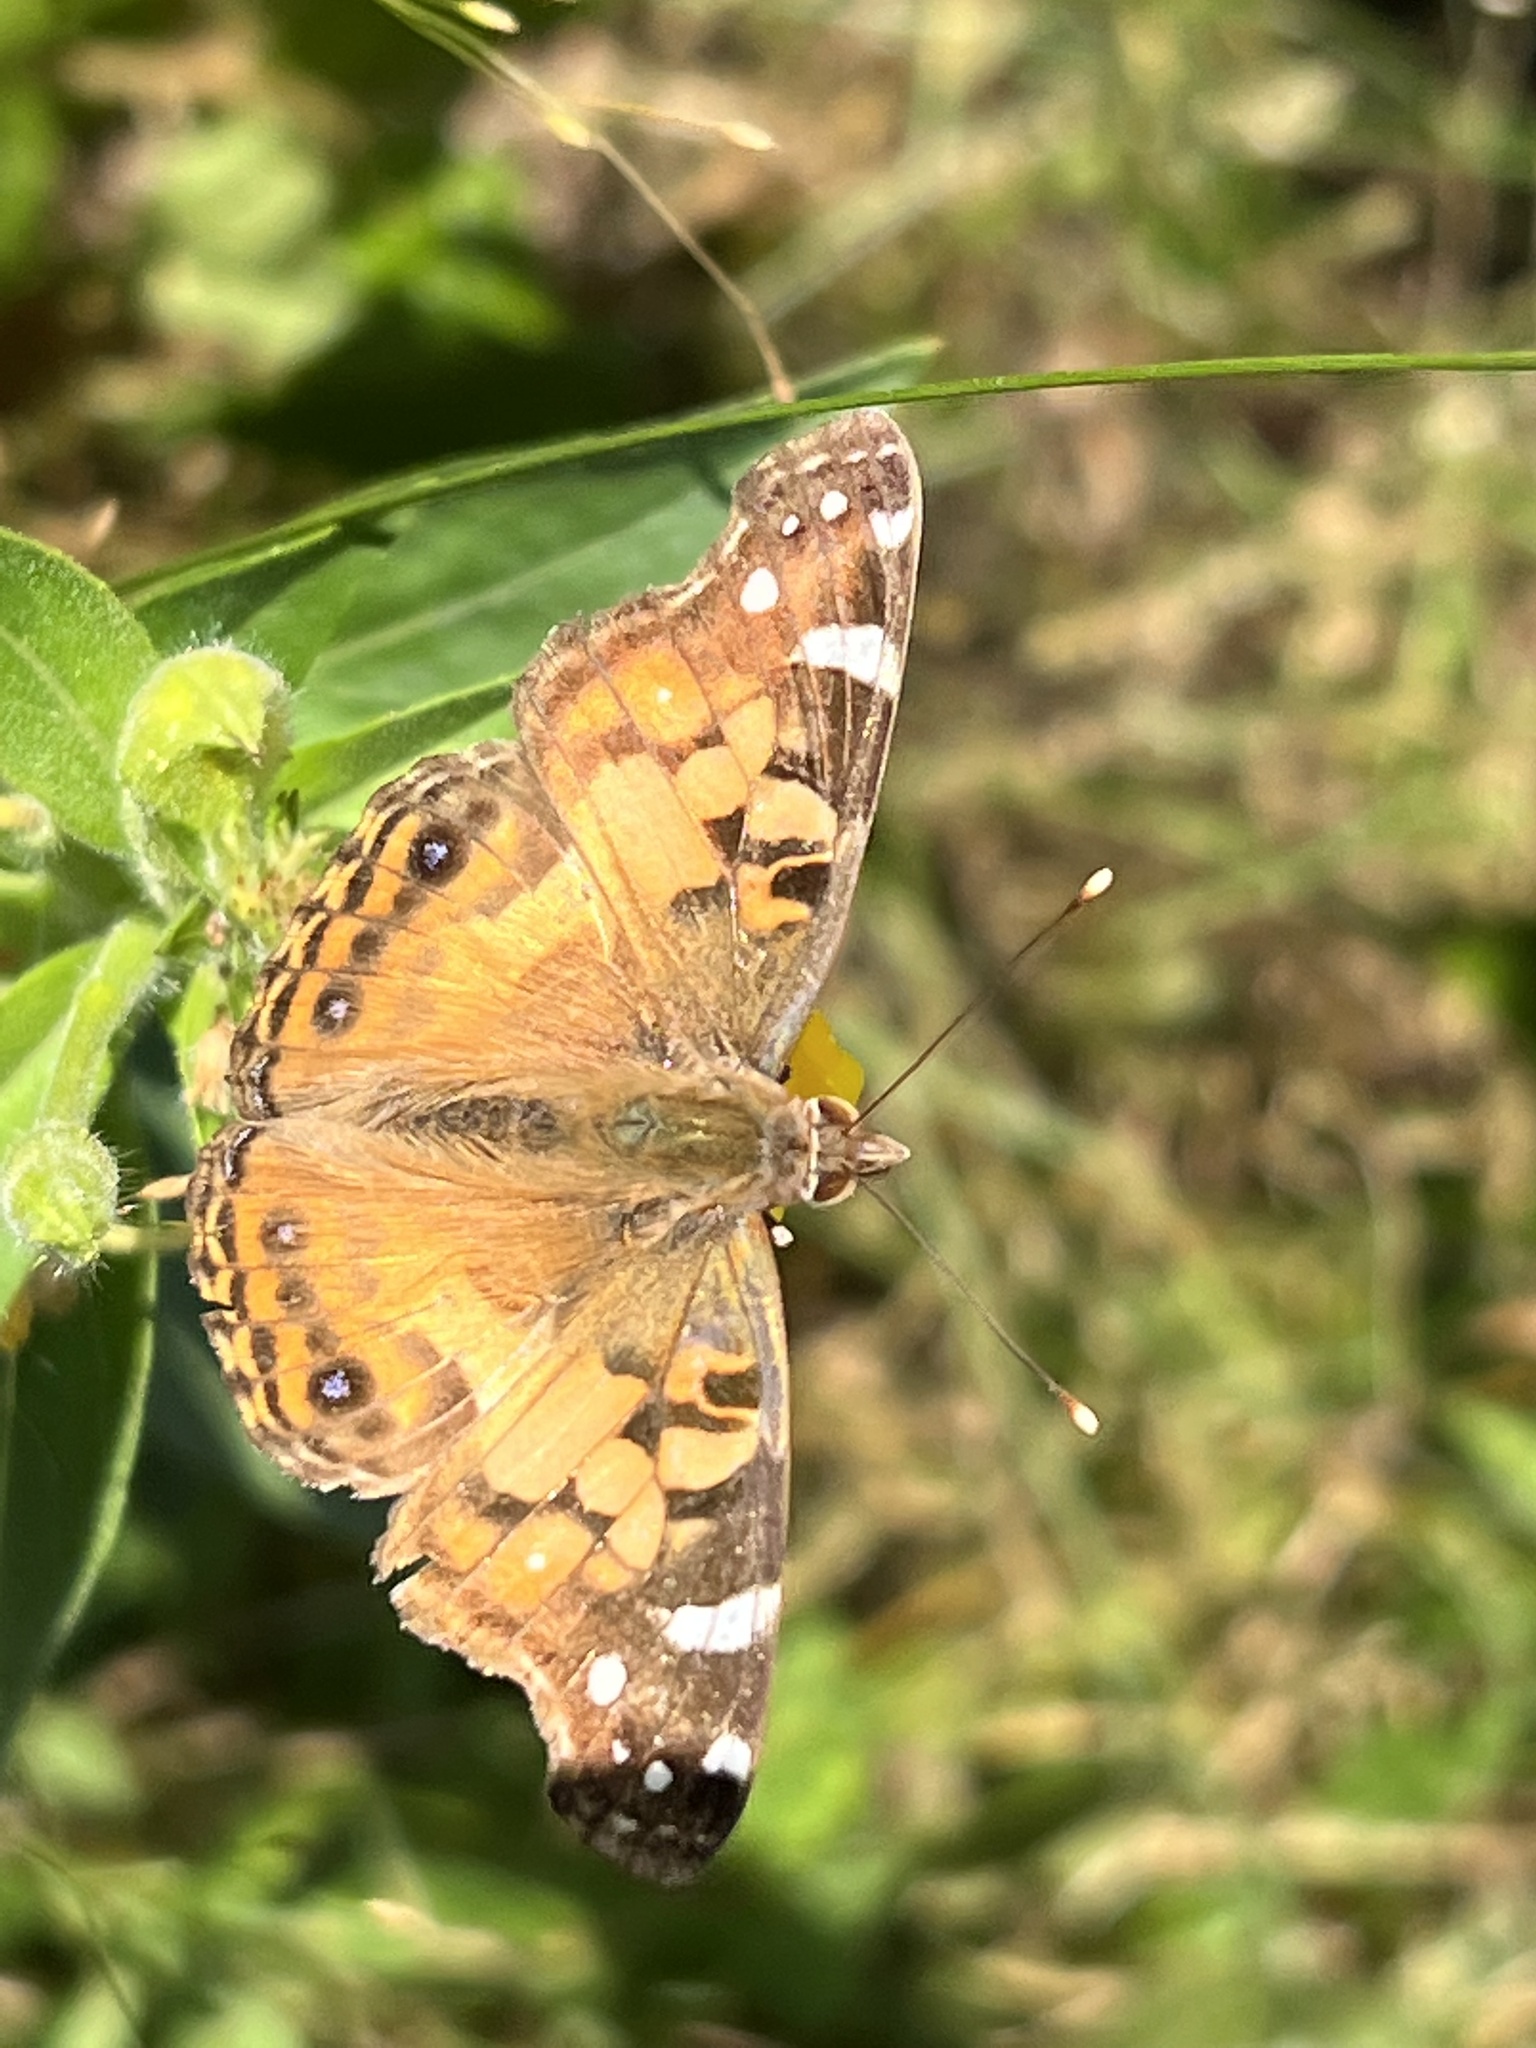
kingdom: Animalia
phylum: Arthropoda
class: Insecta
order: Lepidoptera
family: Nymphalidae
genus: Vanessa
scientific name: Vanessa virginiensis
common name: American lady
